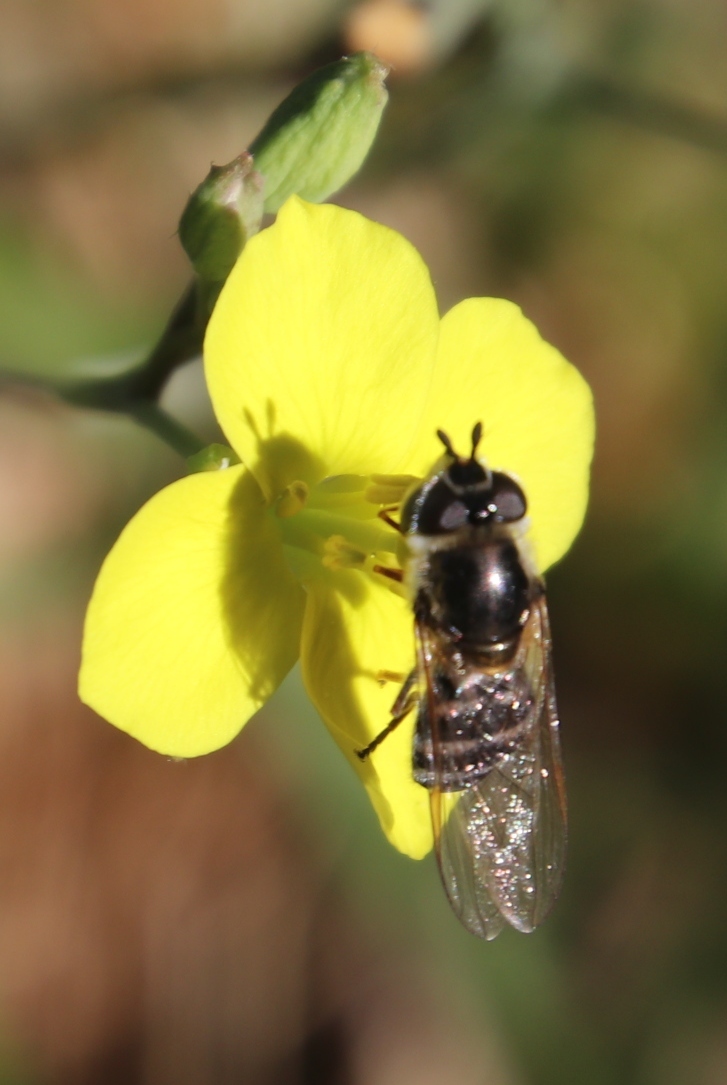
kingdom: Plantae
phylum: Tracheophyta
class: Magnoliopsida
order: Brassicales
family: Brassicaceae
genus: Diplotaxis
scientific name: Diplotaxis tenuifolia
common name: Perennial wall-rocket
